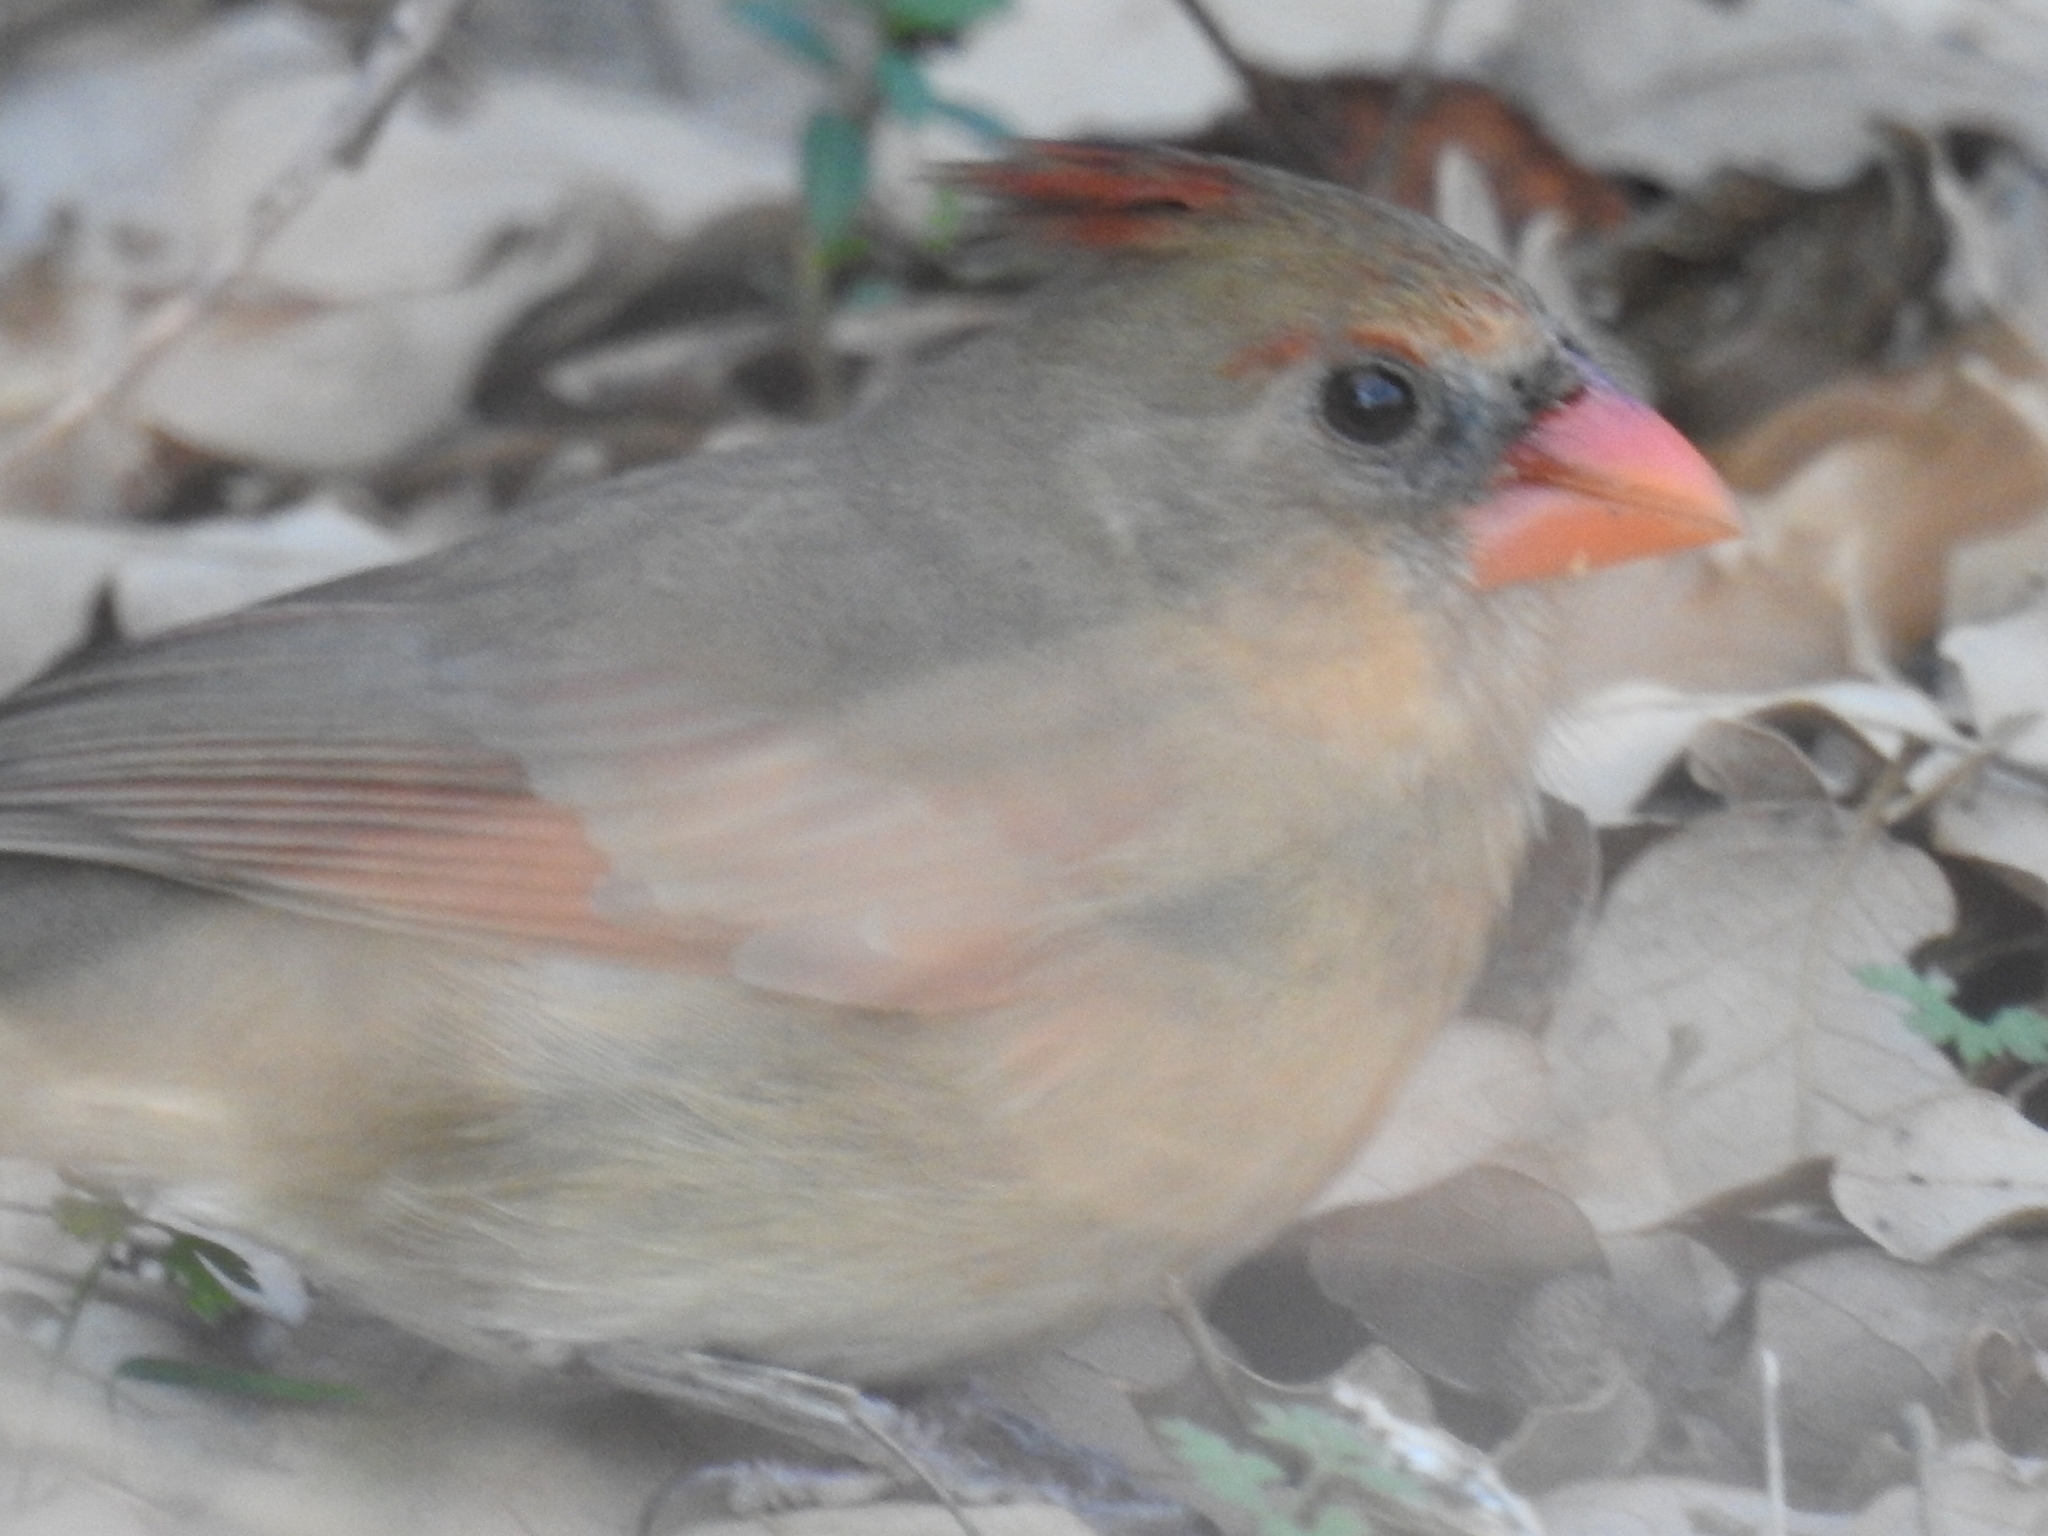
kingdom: Animalia
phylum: Chordata
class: Aves
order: Passeriformes
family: Cardinalidae
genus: Cardinalis
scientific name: Cardinalis cardinalis
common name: Northern cardinal
